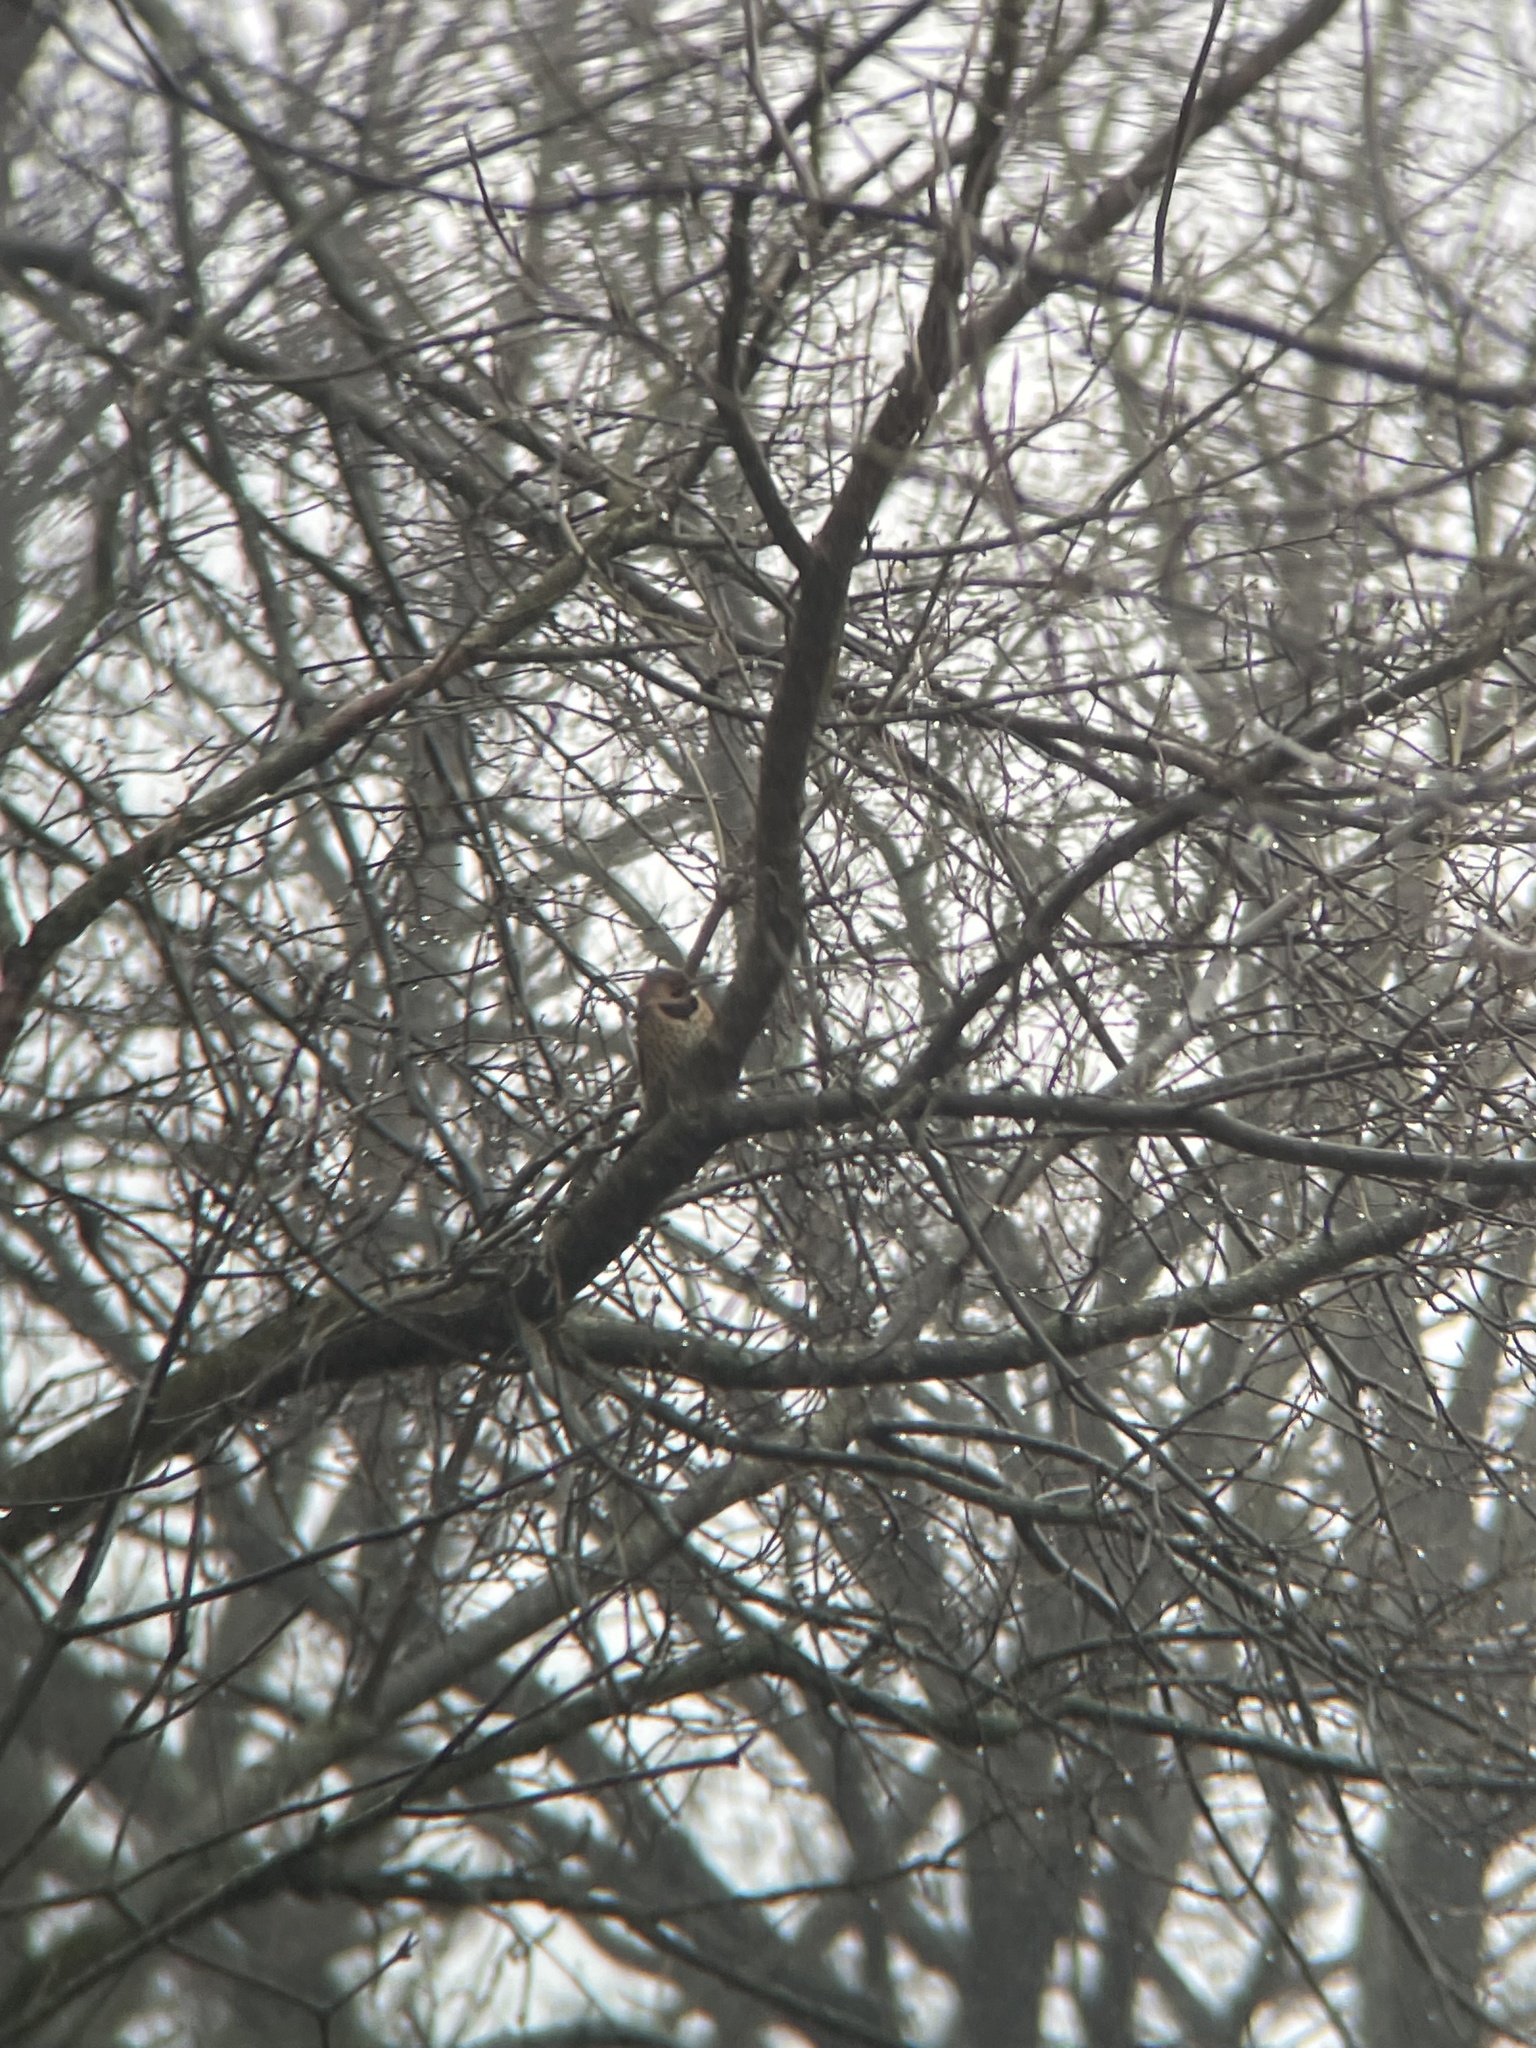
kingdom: Animalia
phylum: Chordata
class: Aves
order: Piciformes
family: Picidae
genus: Colaptes
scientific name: Colaptes auratus
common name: Northern flicker
